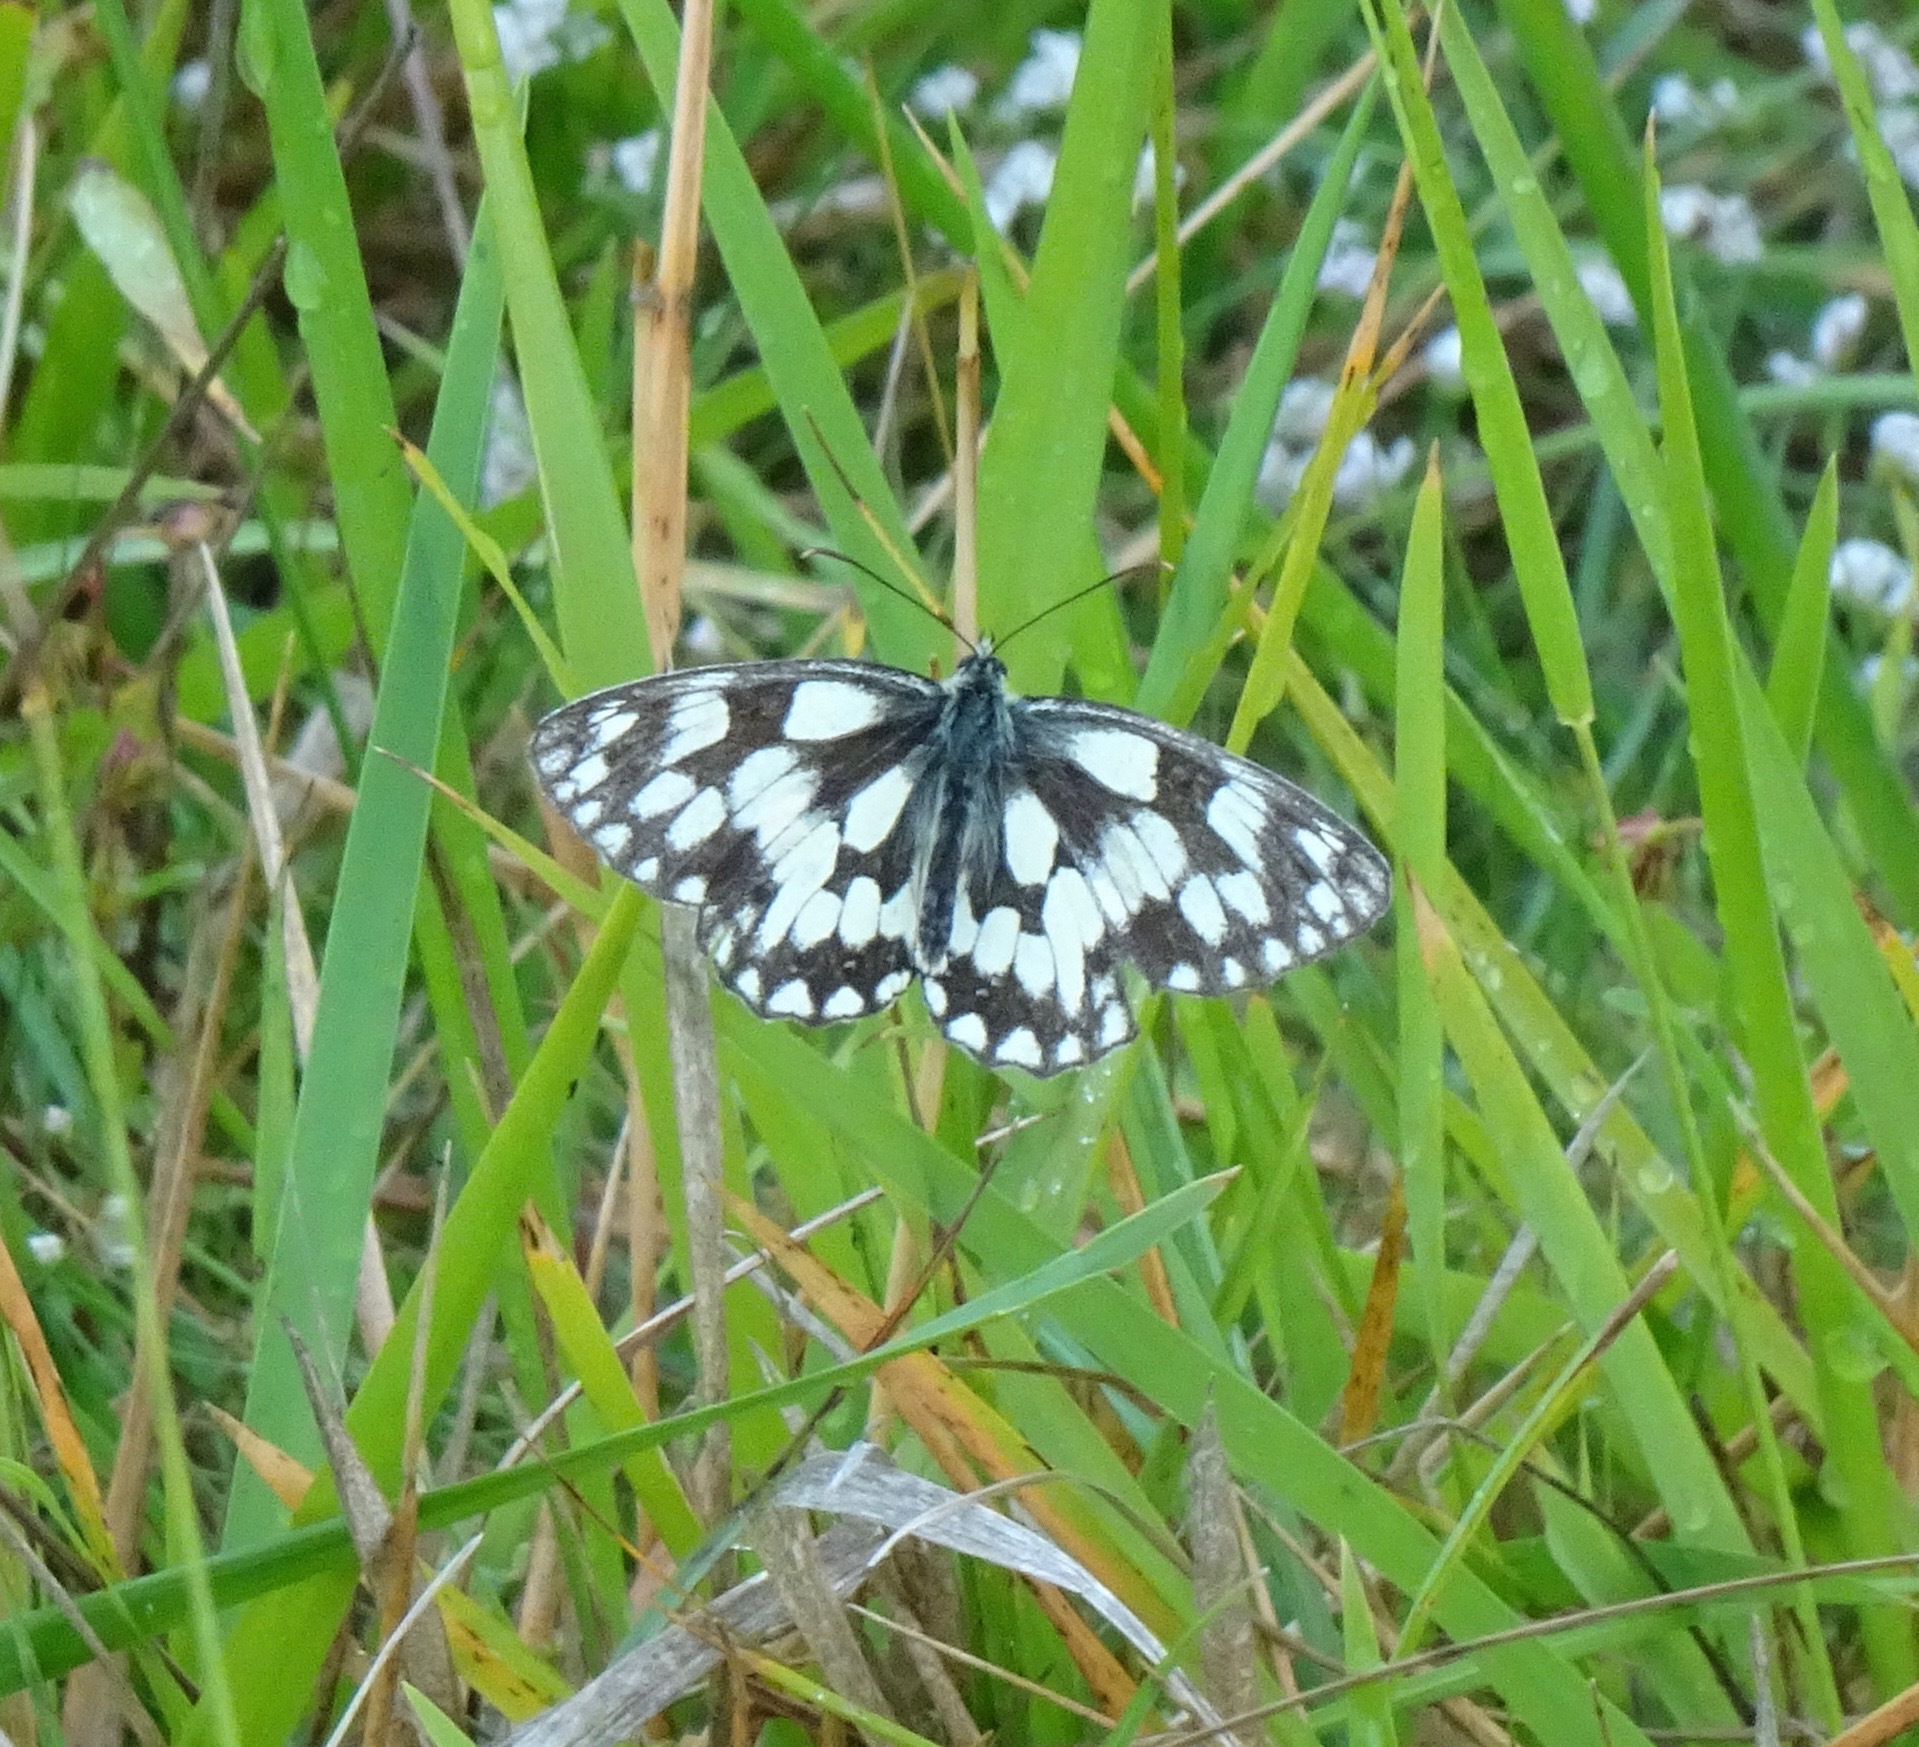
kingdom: Animalia
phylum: Arthropoda
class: Insecta
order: Lepidoptera
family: Nymphalidae
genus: Melanargia
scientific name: Melanargia galathea
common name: Marbled white
